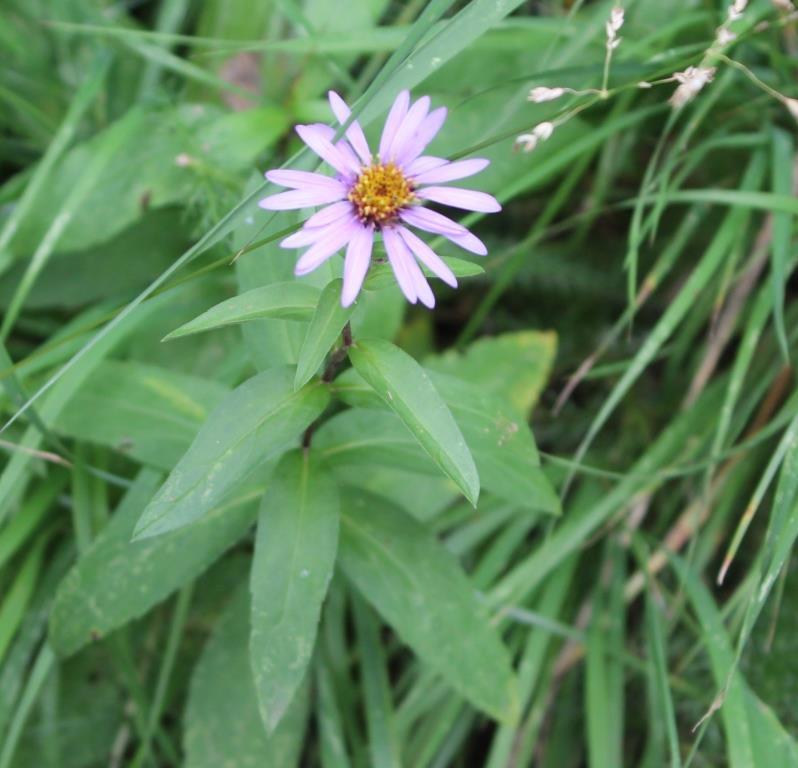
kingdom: Plantae
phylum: Tracheophyta
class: Magnoliopsida
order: Asterales
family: Asteraceae
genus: Eurybia
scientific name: Eurybia sibirica
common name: Arctic aster
